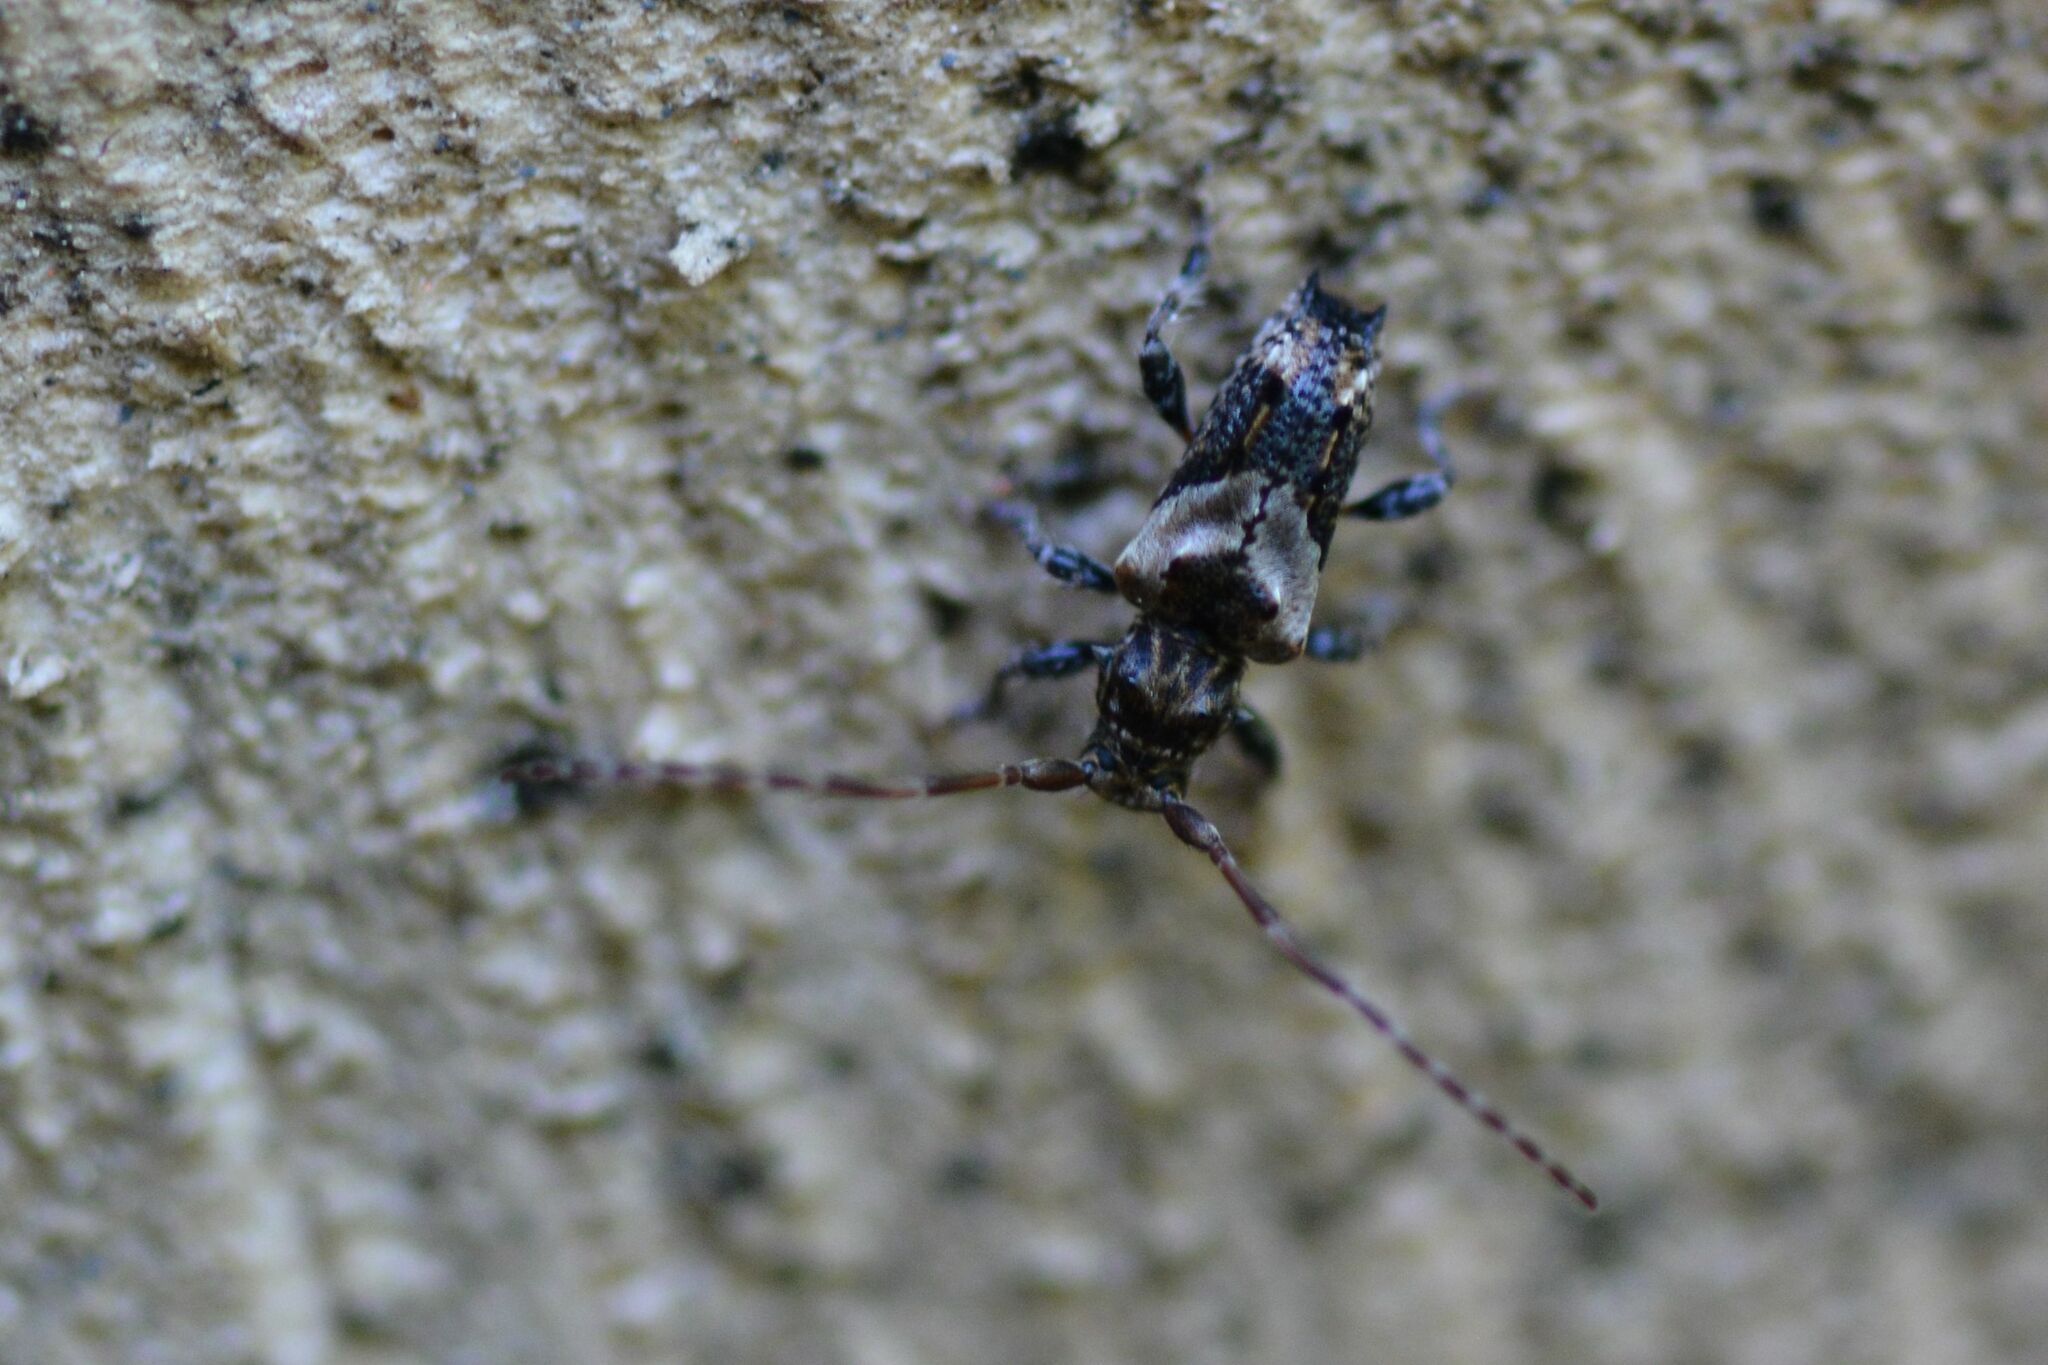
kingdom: Animalia
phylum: Arthropoda
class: Insecta
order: Coleoptera
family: Cerambycidae
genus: Pogonocherus
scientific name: Pogonocherus hispidus
